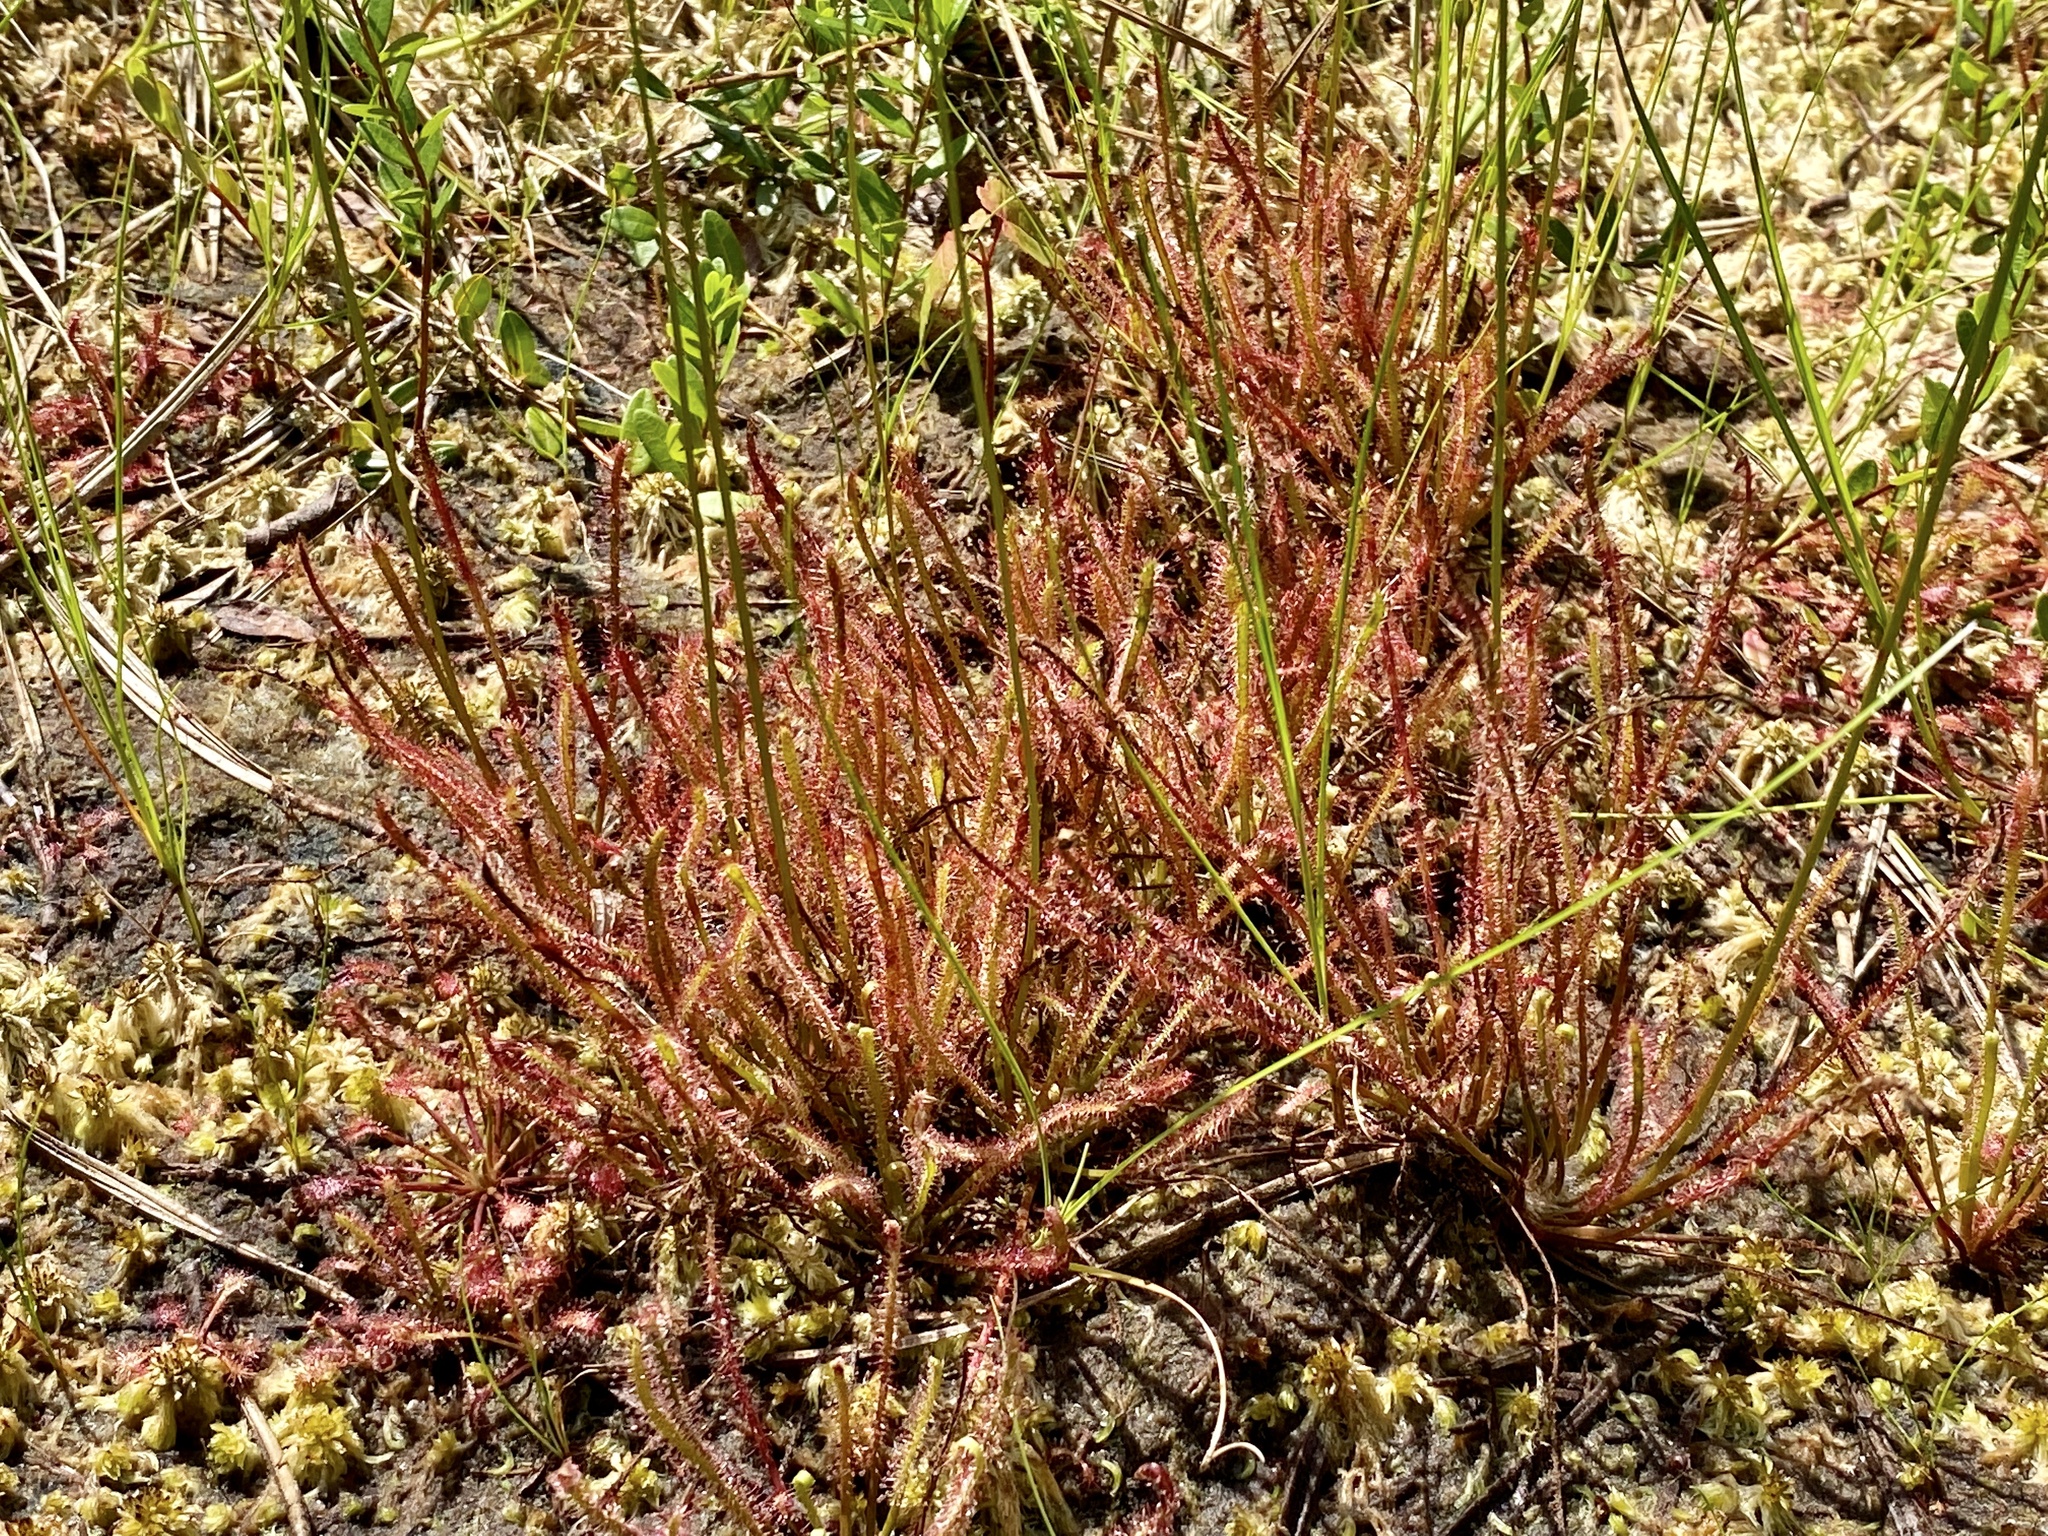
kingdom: Plantae
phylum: Tracheophyta
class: Magnoliopsida
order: Caryophyllales
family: Droseraceae
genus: Drosera
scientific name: Drosera hybrida
